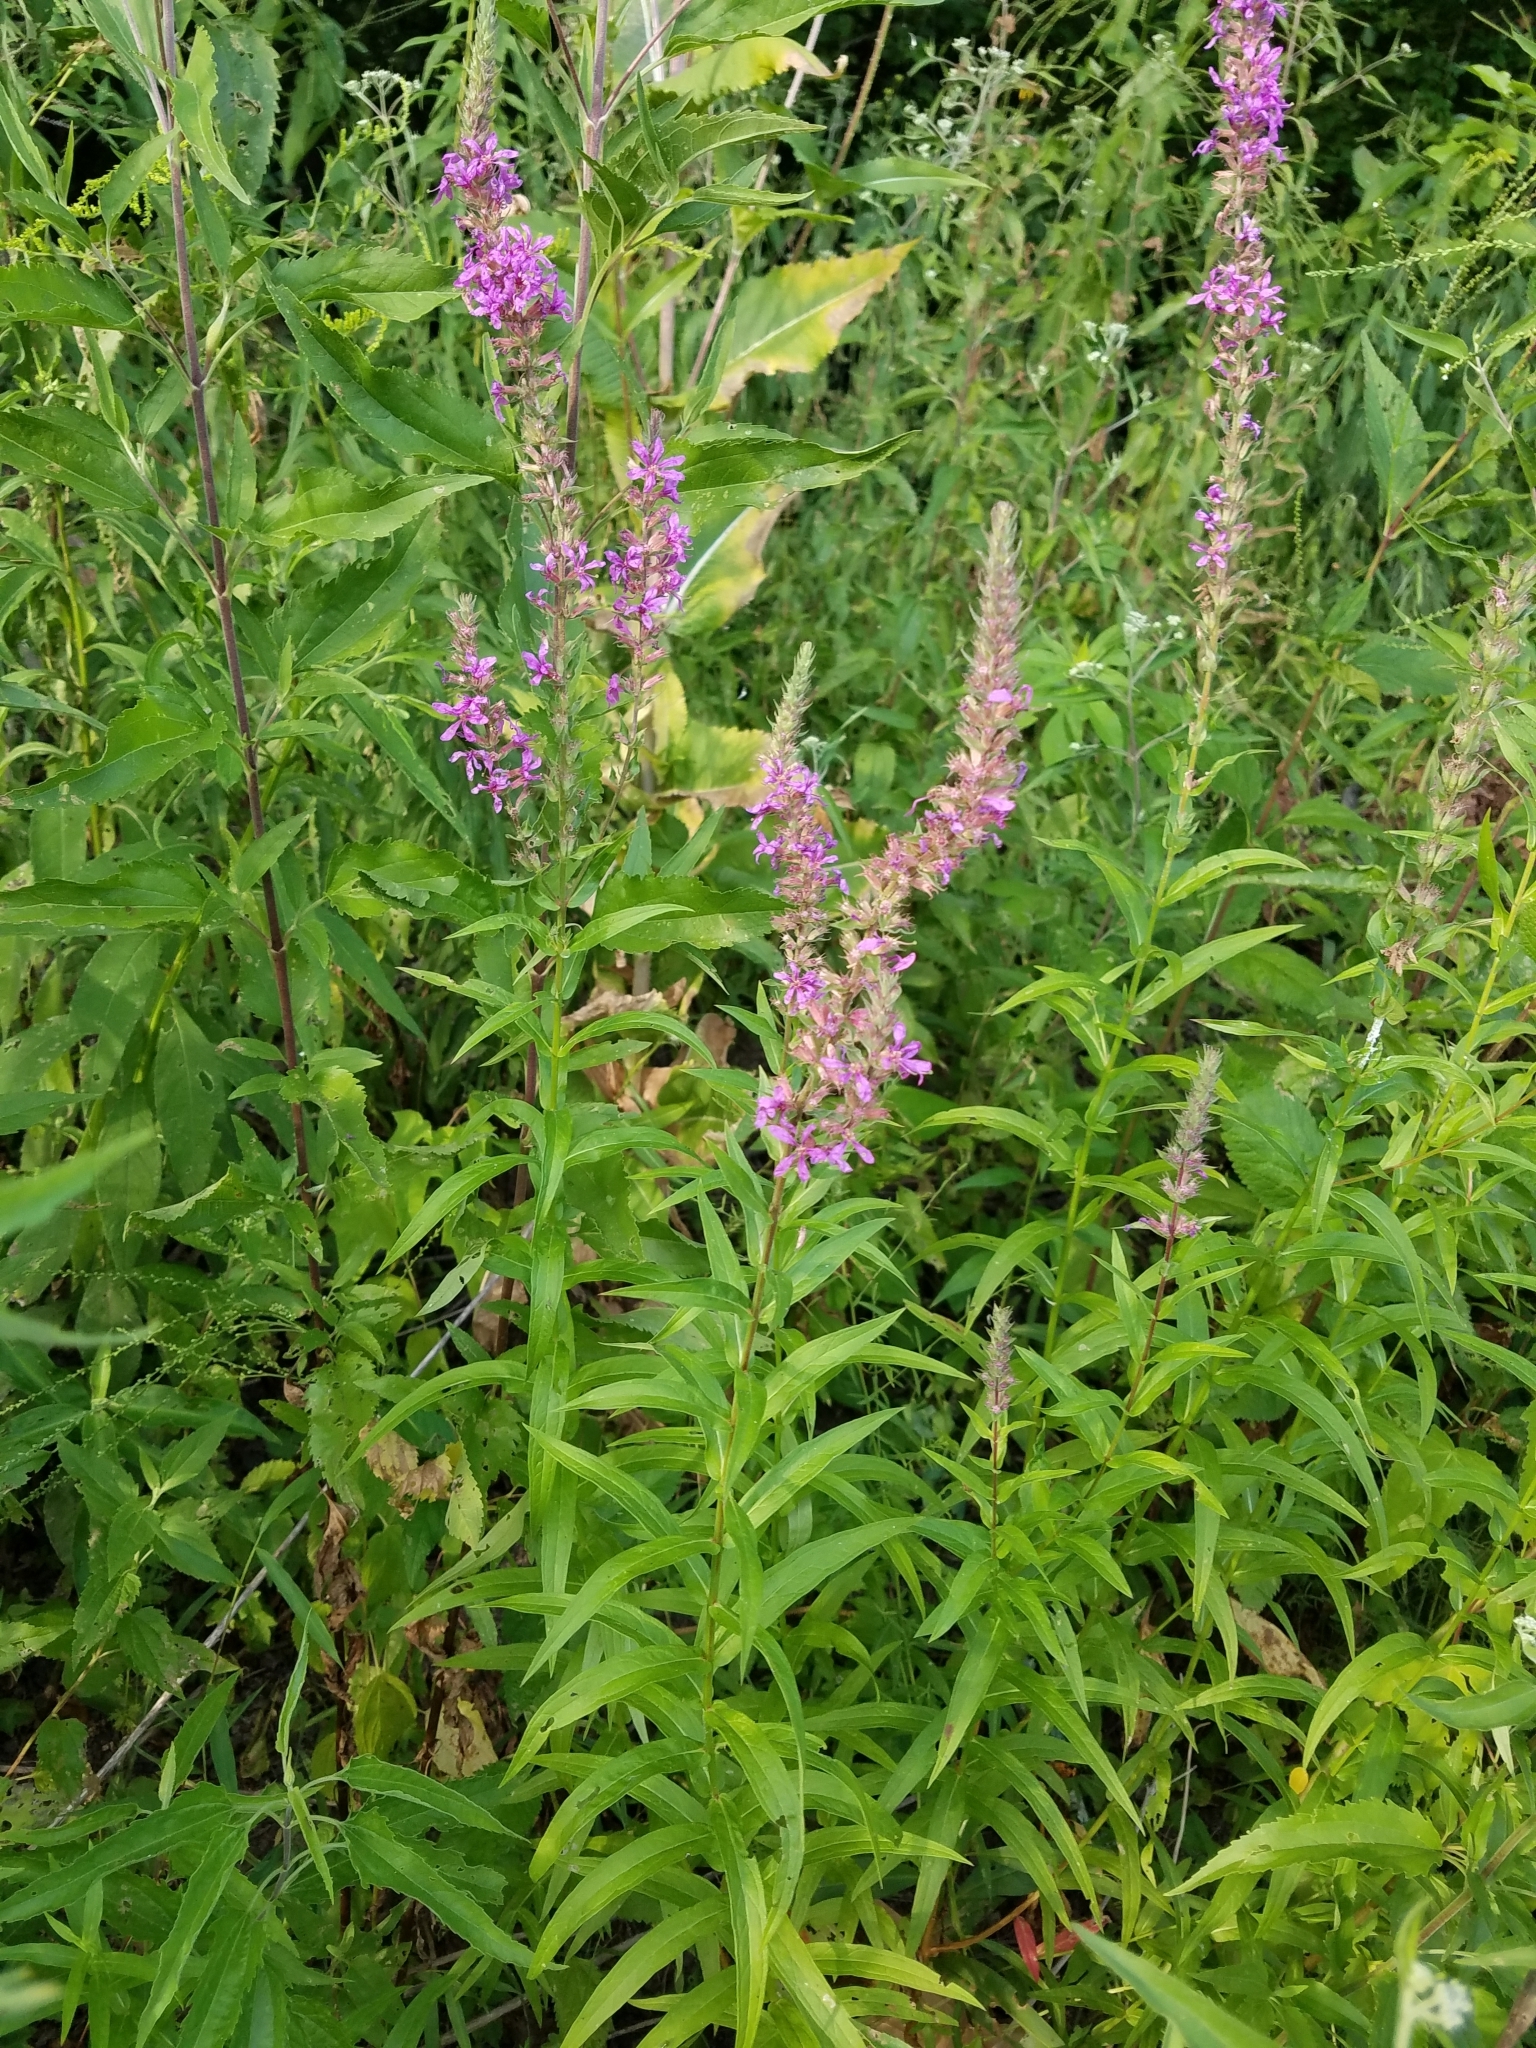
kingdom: Plantae
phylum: Tracheophyta
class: Magnoliopsida
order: Myrtales
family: Lythraceae
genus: Lythrum
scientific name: Lythrum salicaria
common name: Purple loosestrife
